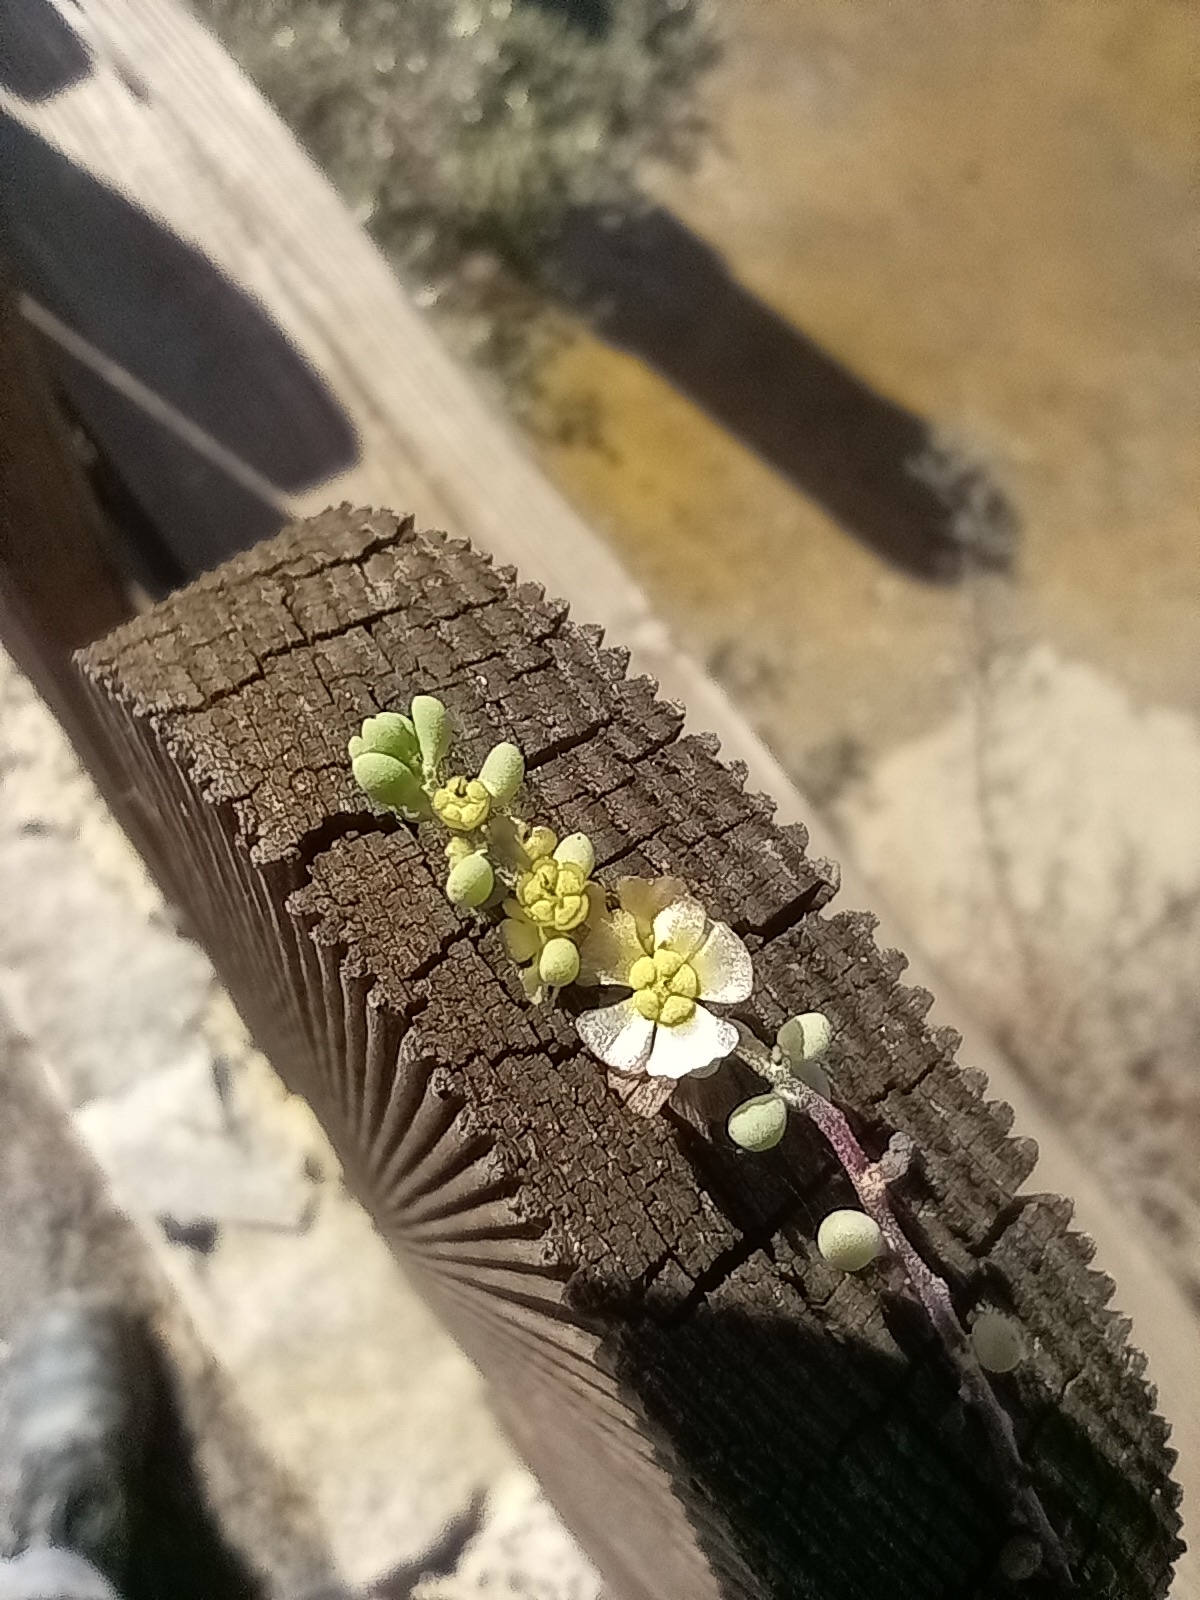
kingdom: Plantae
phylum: Tracheophyta
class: Magnoliopsida
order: Caryophyllales
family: Amaranthaceae
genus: Maireana
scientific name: Maireana brevifolia
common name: Eastern cottonbush
